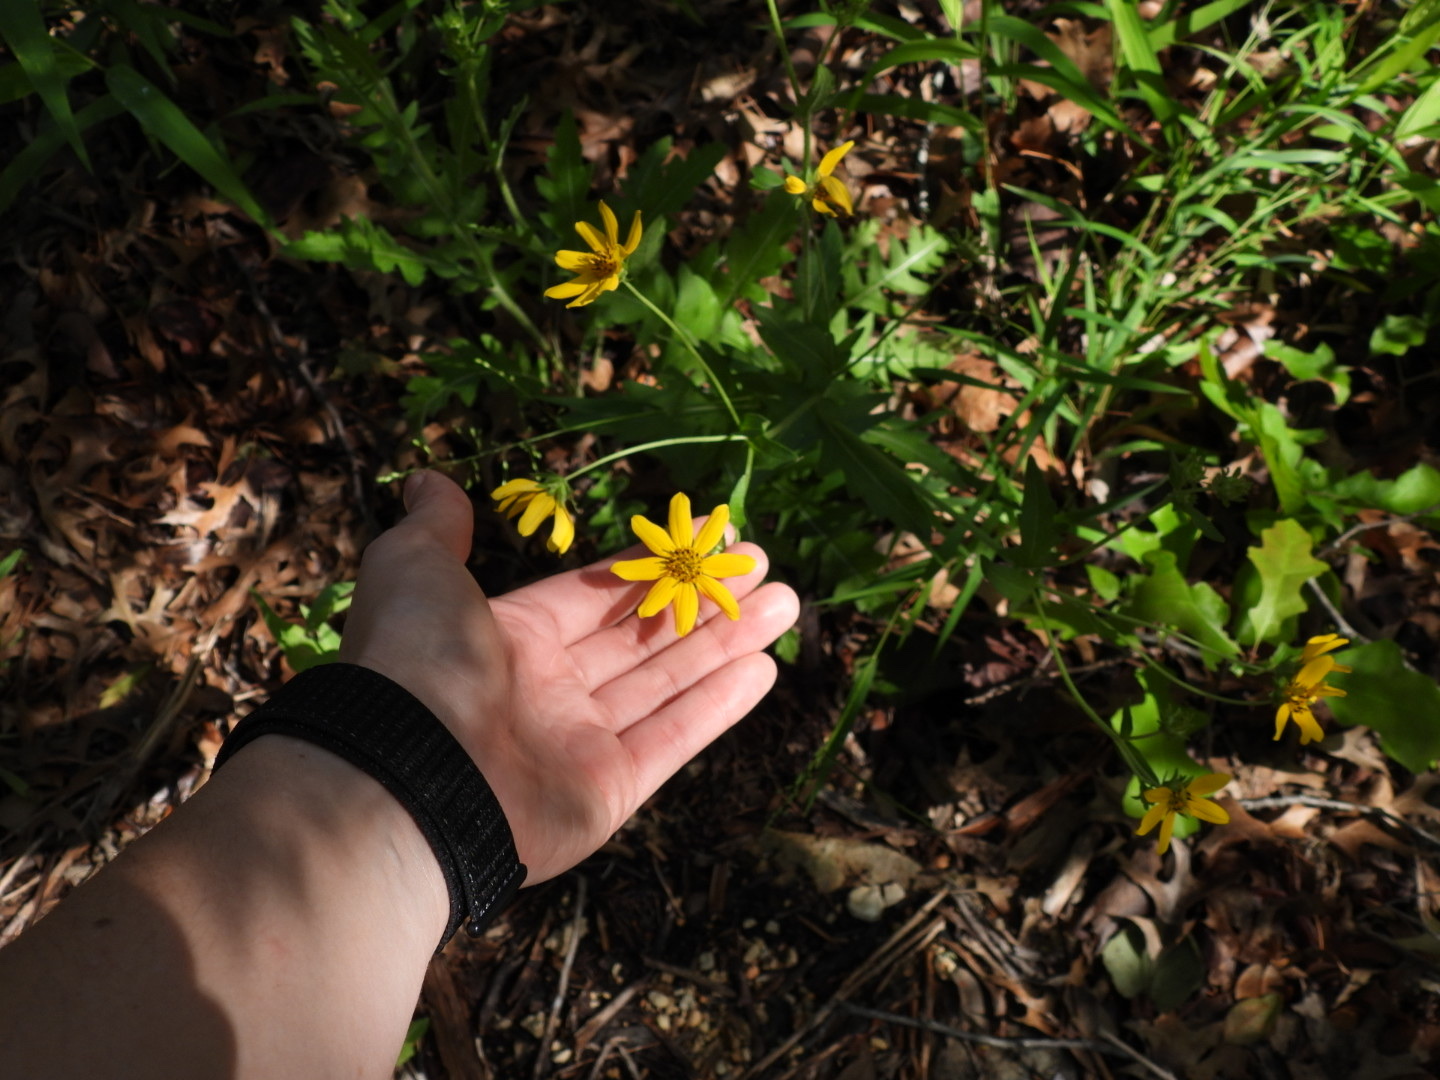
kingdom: Plantae
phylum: Tracheophyta
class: Magnoliopsida
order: Asterales
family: Asteraceae
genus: Engelmannia
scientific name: Engelmannia peristenia
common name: Engelmann's daisy
